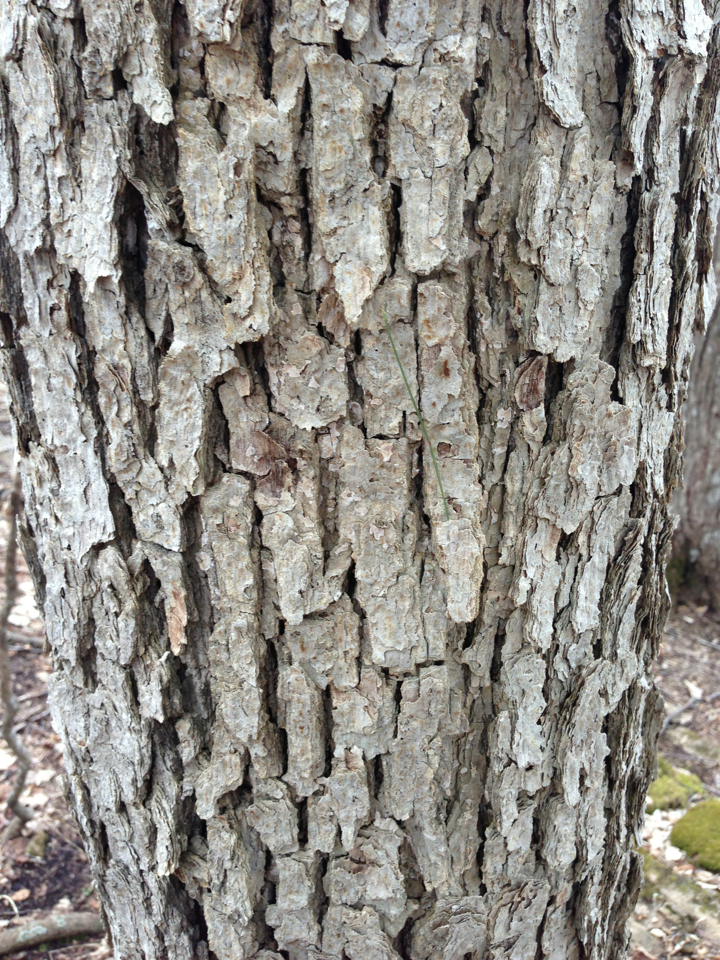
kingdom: Plantae
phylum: Tracheophyta
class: Magnoliopsida
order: Fagales
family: Fagaceae
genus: Quercus
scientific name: Quercus alba
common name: White oak
